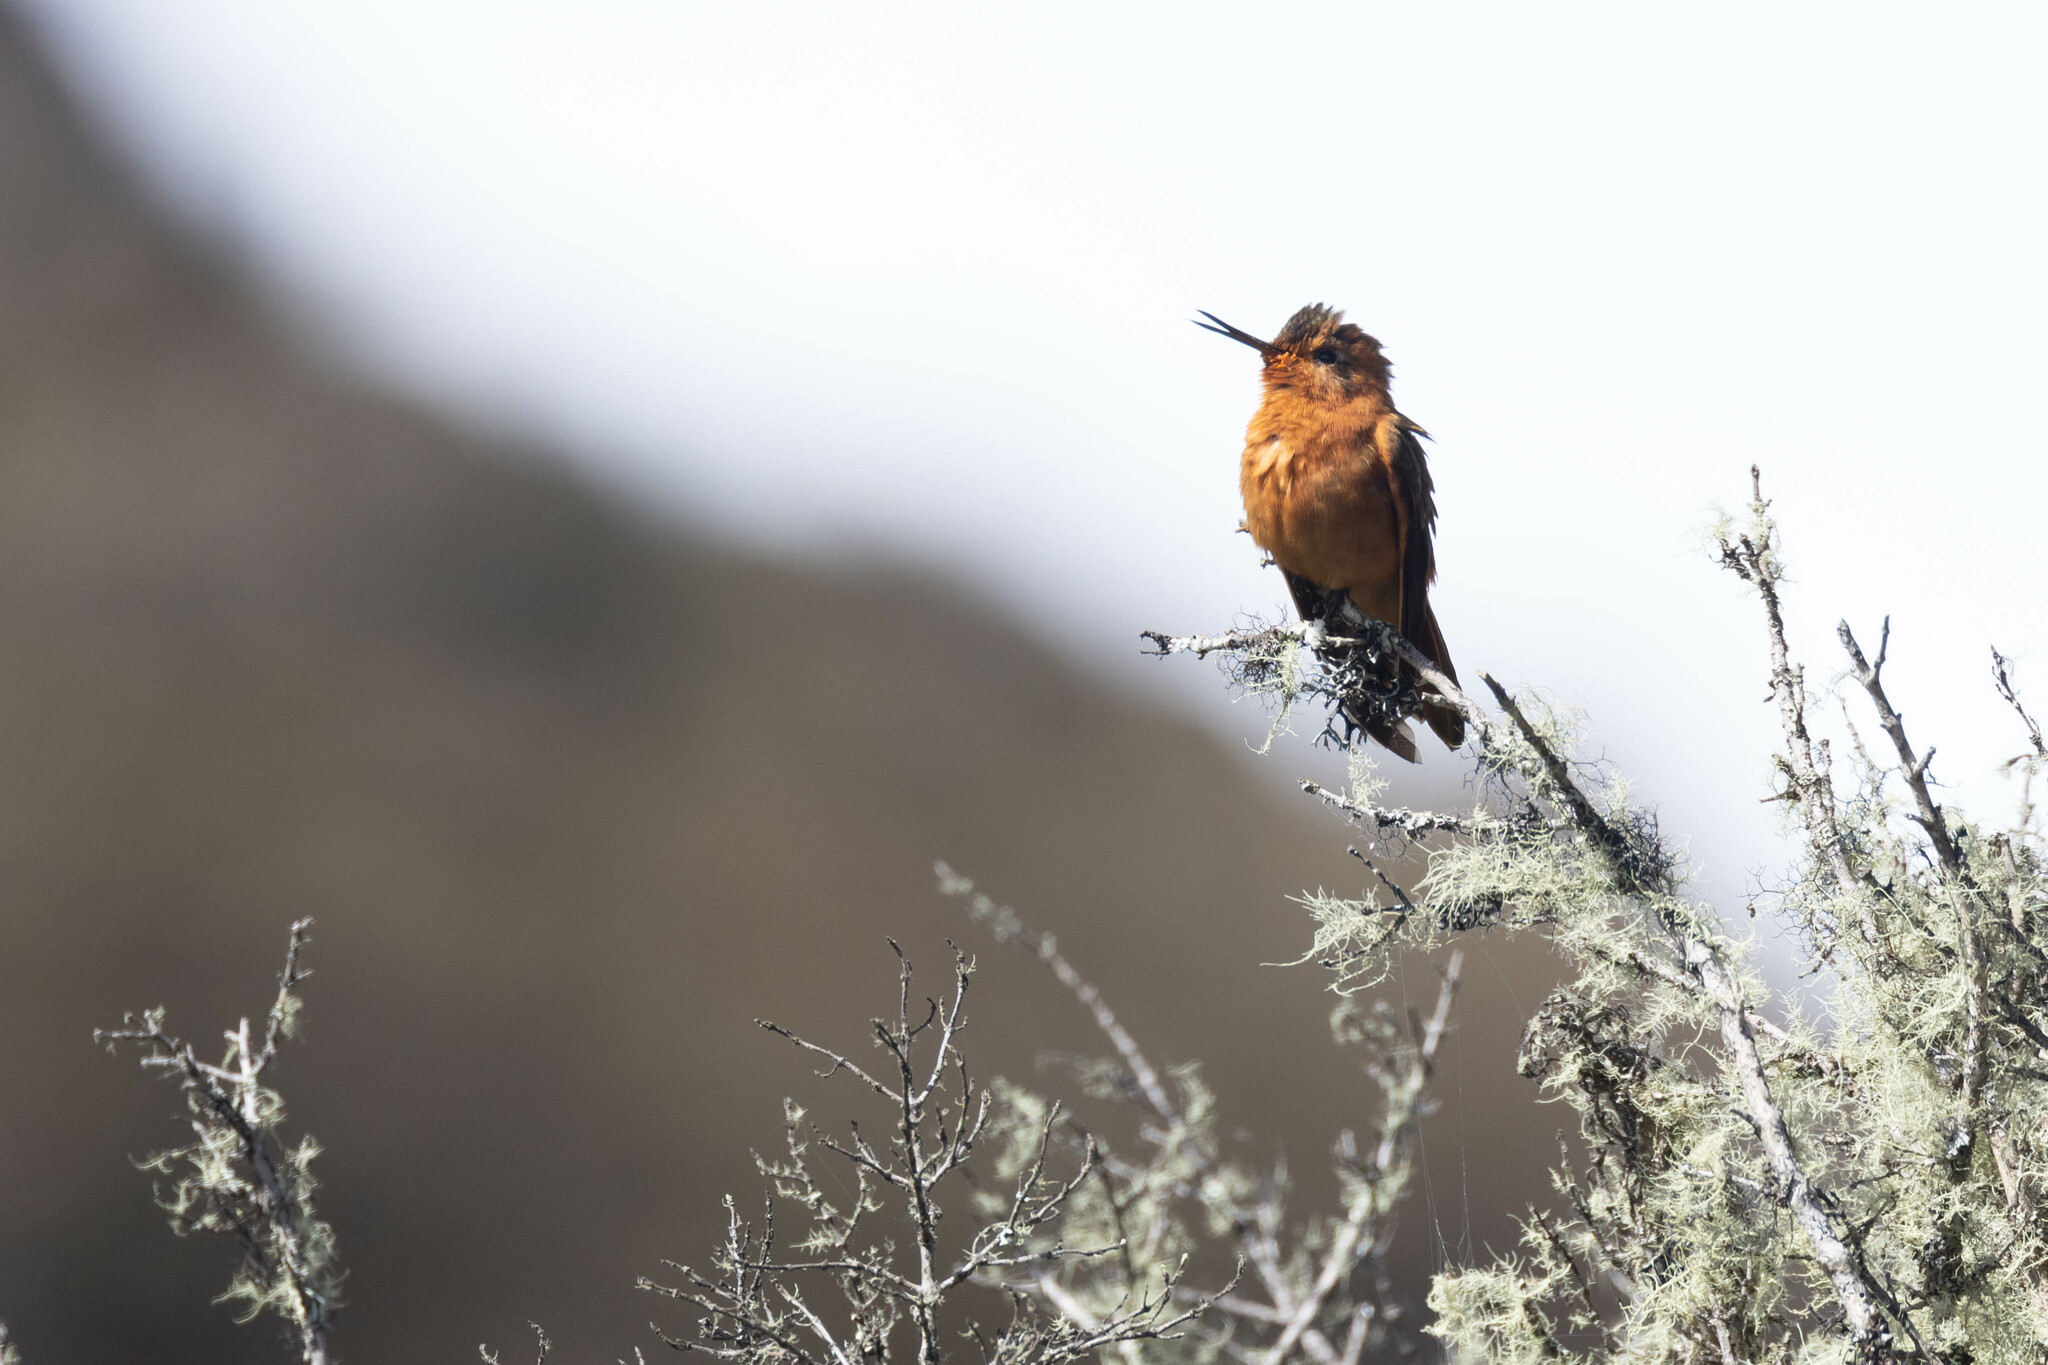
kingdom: Animalia
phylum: Chordata
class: Aves
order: Apodiformes
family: Trochilidae
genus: Aglaeactis
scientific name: Aglaeactis cupripennis
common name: Shining sunbeam
